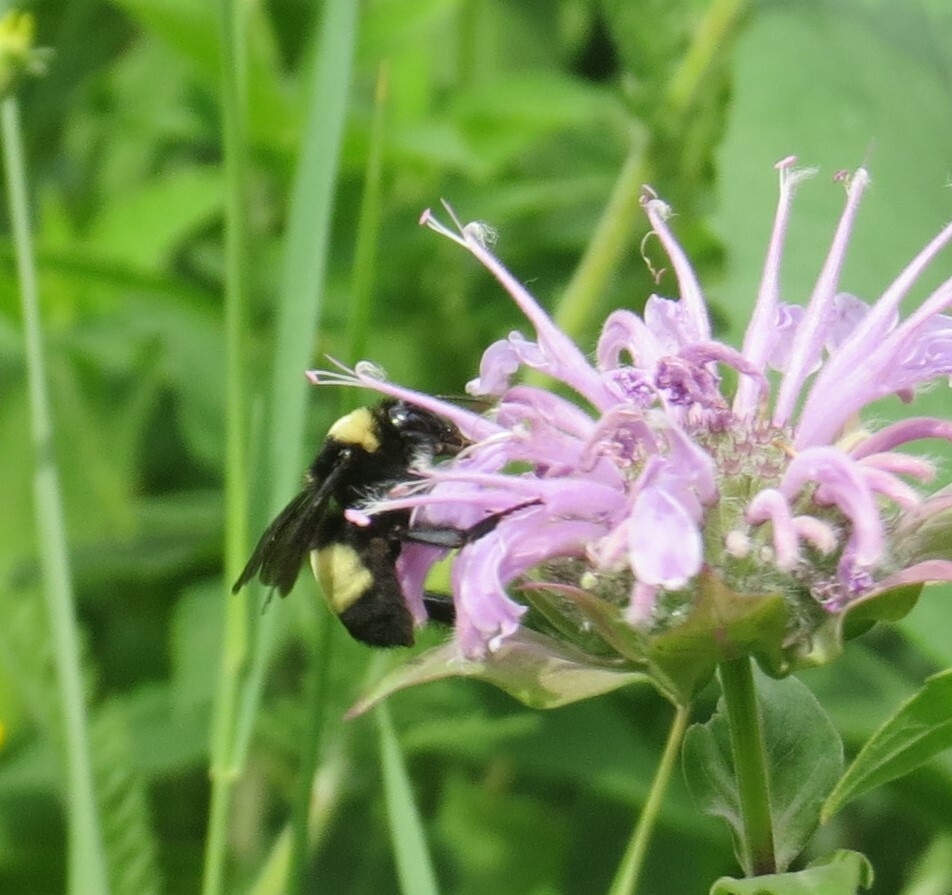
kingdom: Animalia
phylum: Arthropoda
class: Insecta
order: Hymenoptera
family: Apidae
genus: Bombus
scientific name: Bombus auricomus
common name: Black and gold bumble bee
